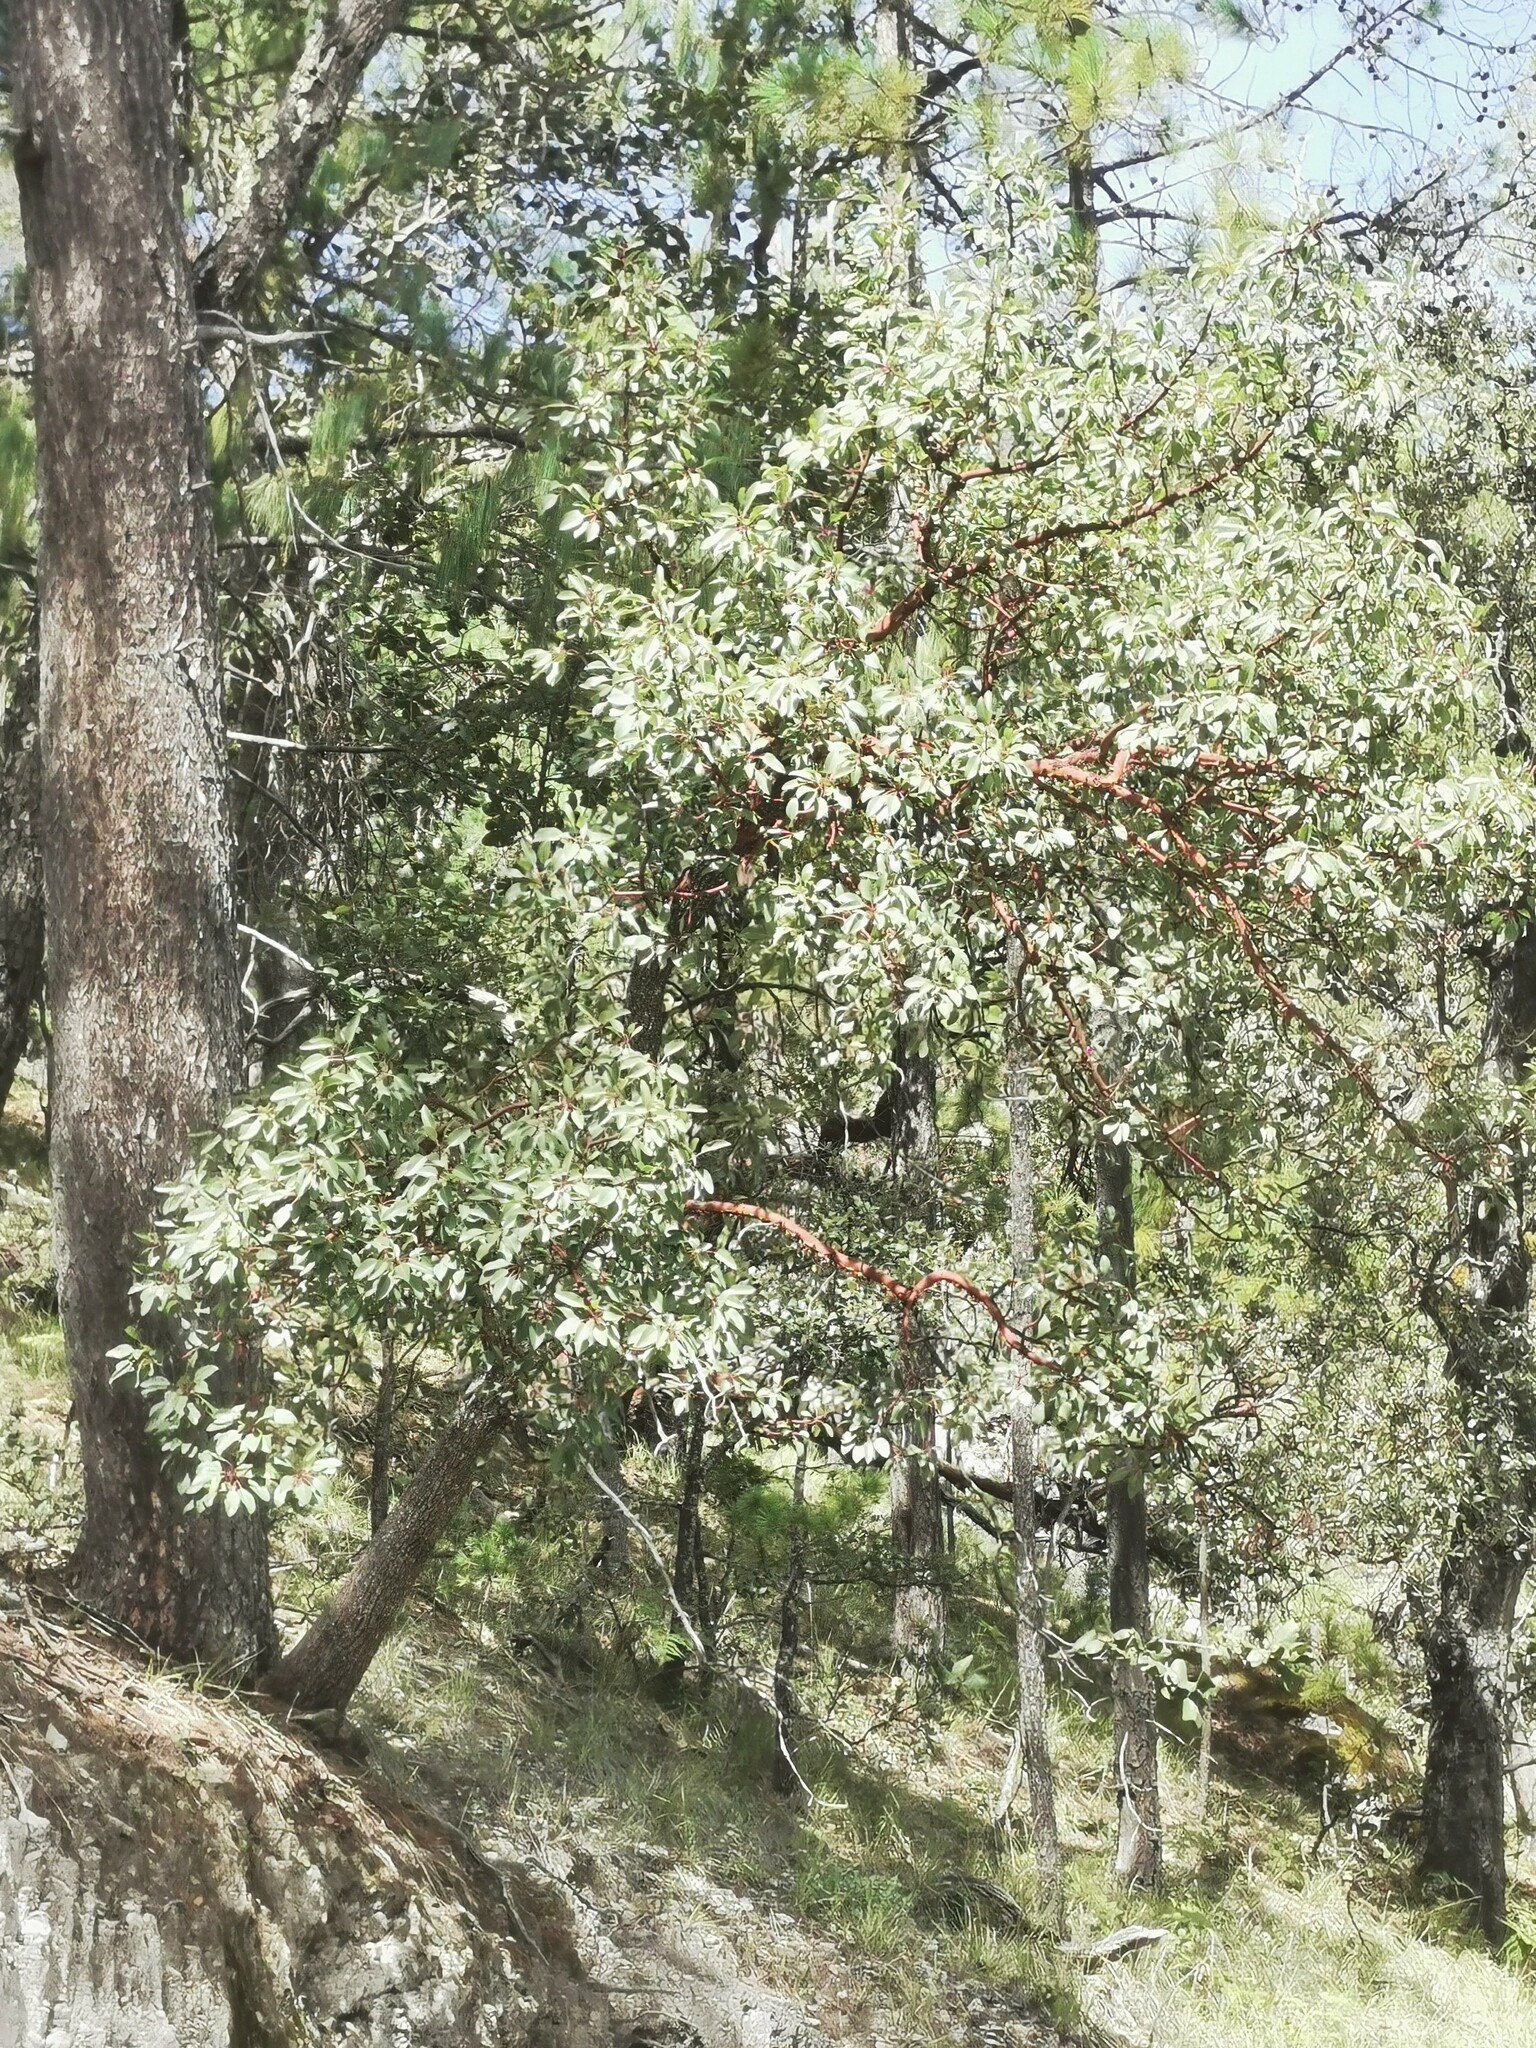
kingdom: Plantae
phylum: Tracheophyta
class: Magnoliopsida
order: Ericales
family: Ericaceae
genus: Arbutus
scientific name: Arbutus arizonica
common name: Arizona madrone
